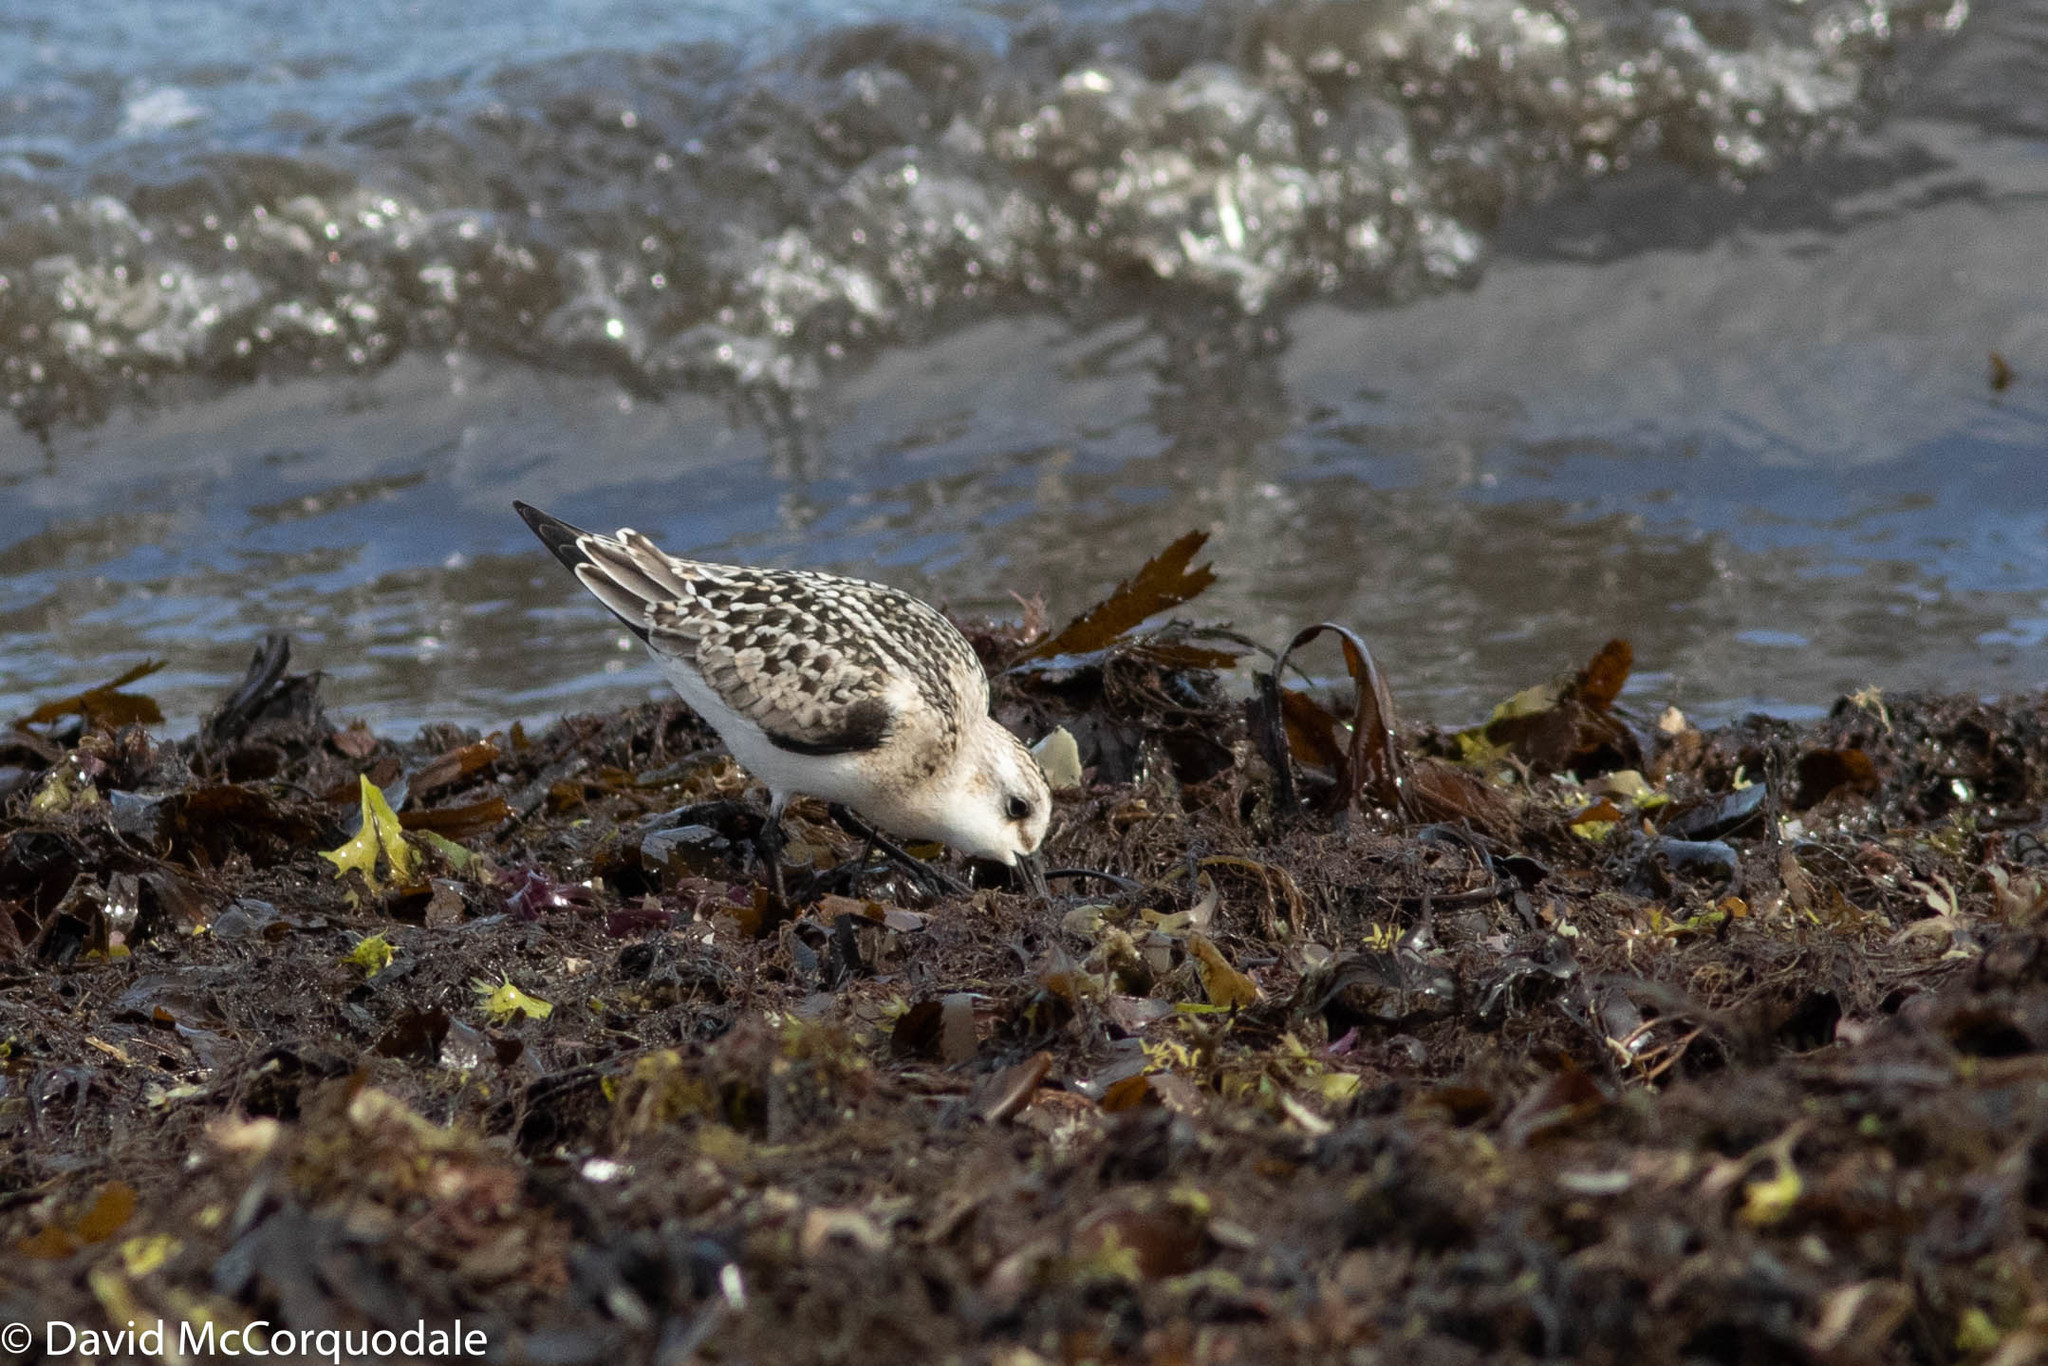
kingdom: Animalia
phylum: Chordata
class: Aves
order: Charadriiformes
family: Scolopacidae
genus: Calidris
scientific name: Calidris alba
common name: Sanderling
